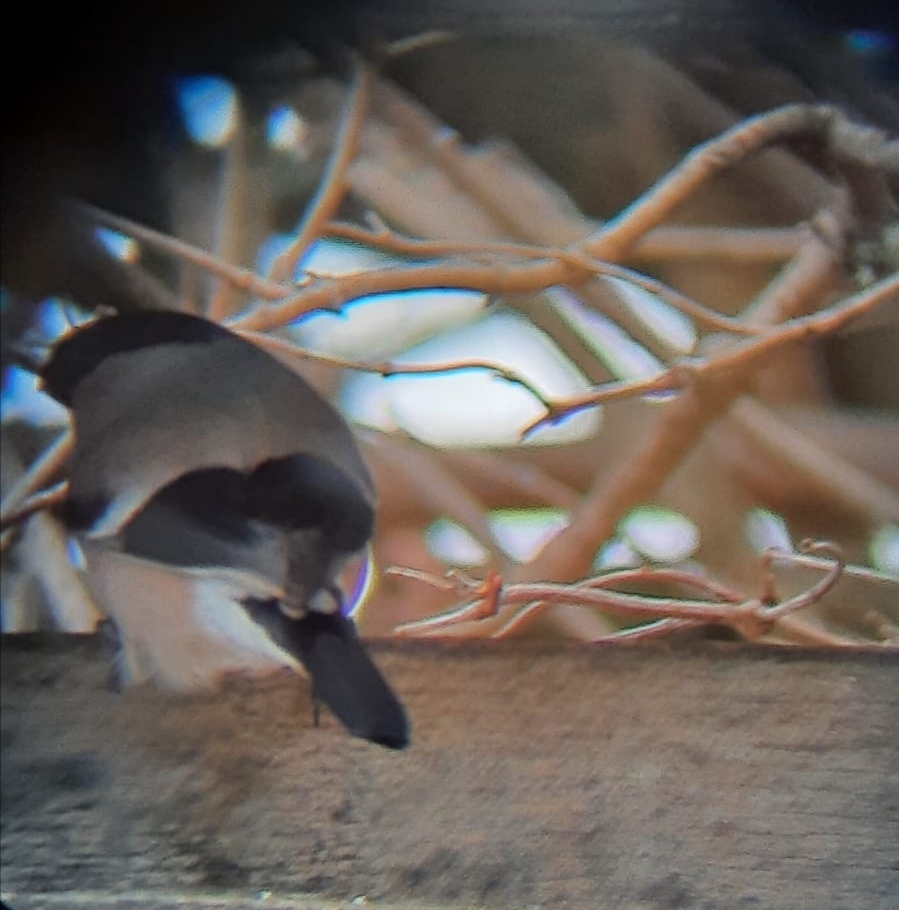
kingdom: Animalia
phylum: Chordata
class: Aves
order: Passeriformes
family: Fringillidae
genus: Pyrrhula
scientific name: Pyrrhula pyrrhula
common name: Eurasian bullfinch
